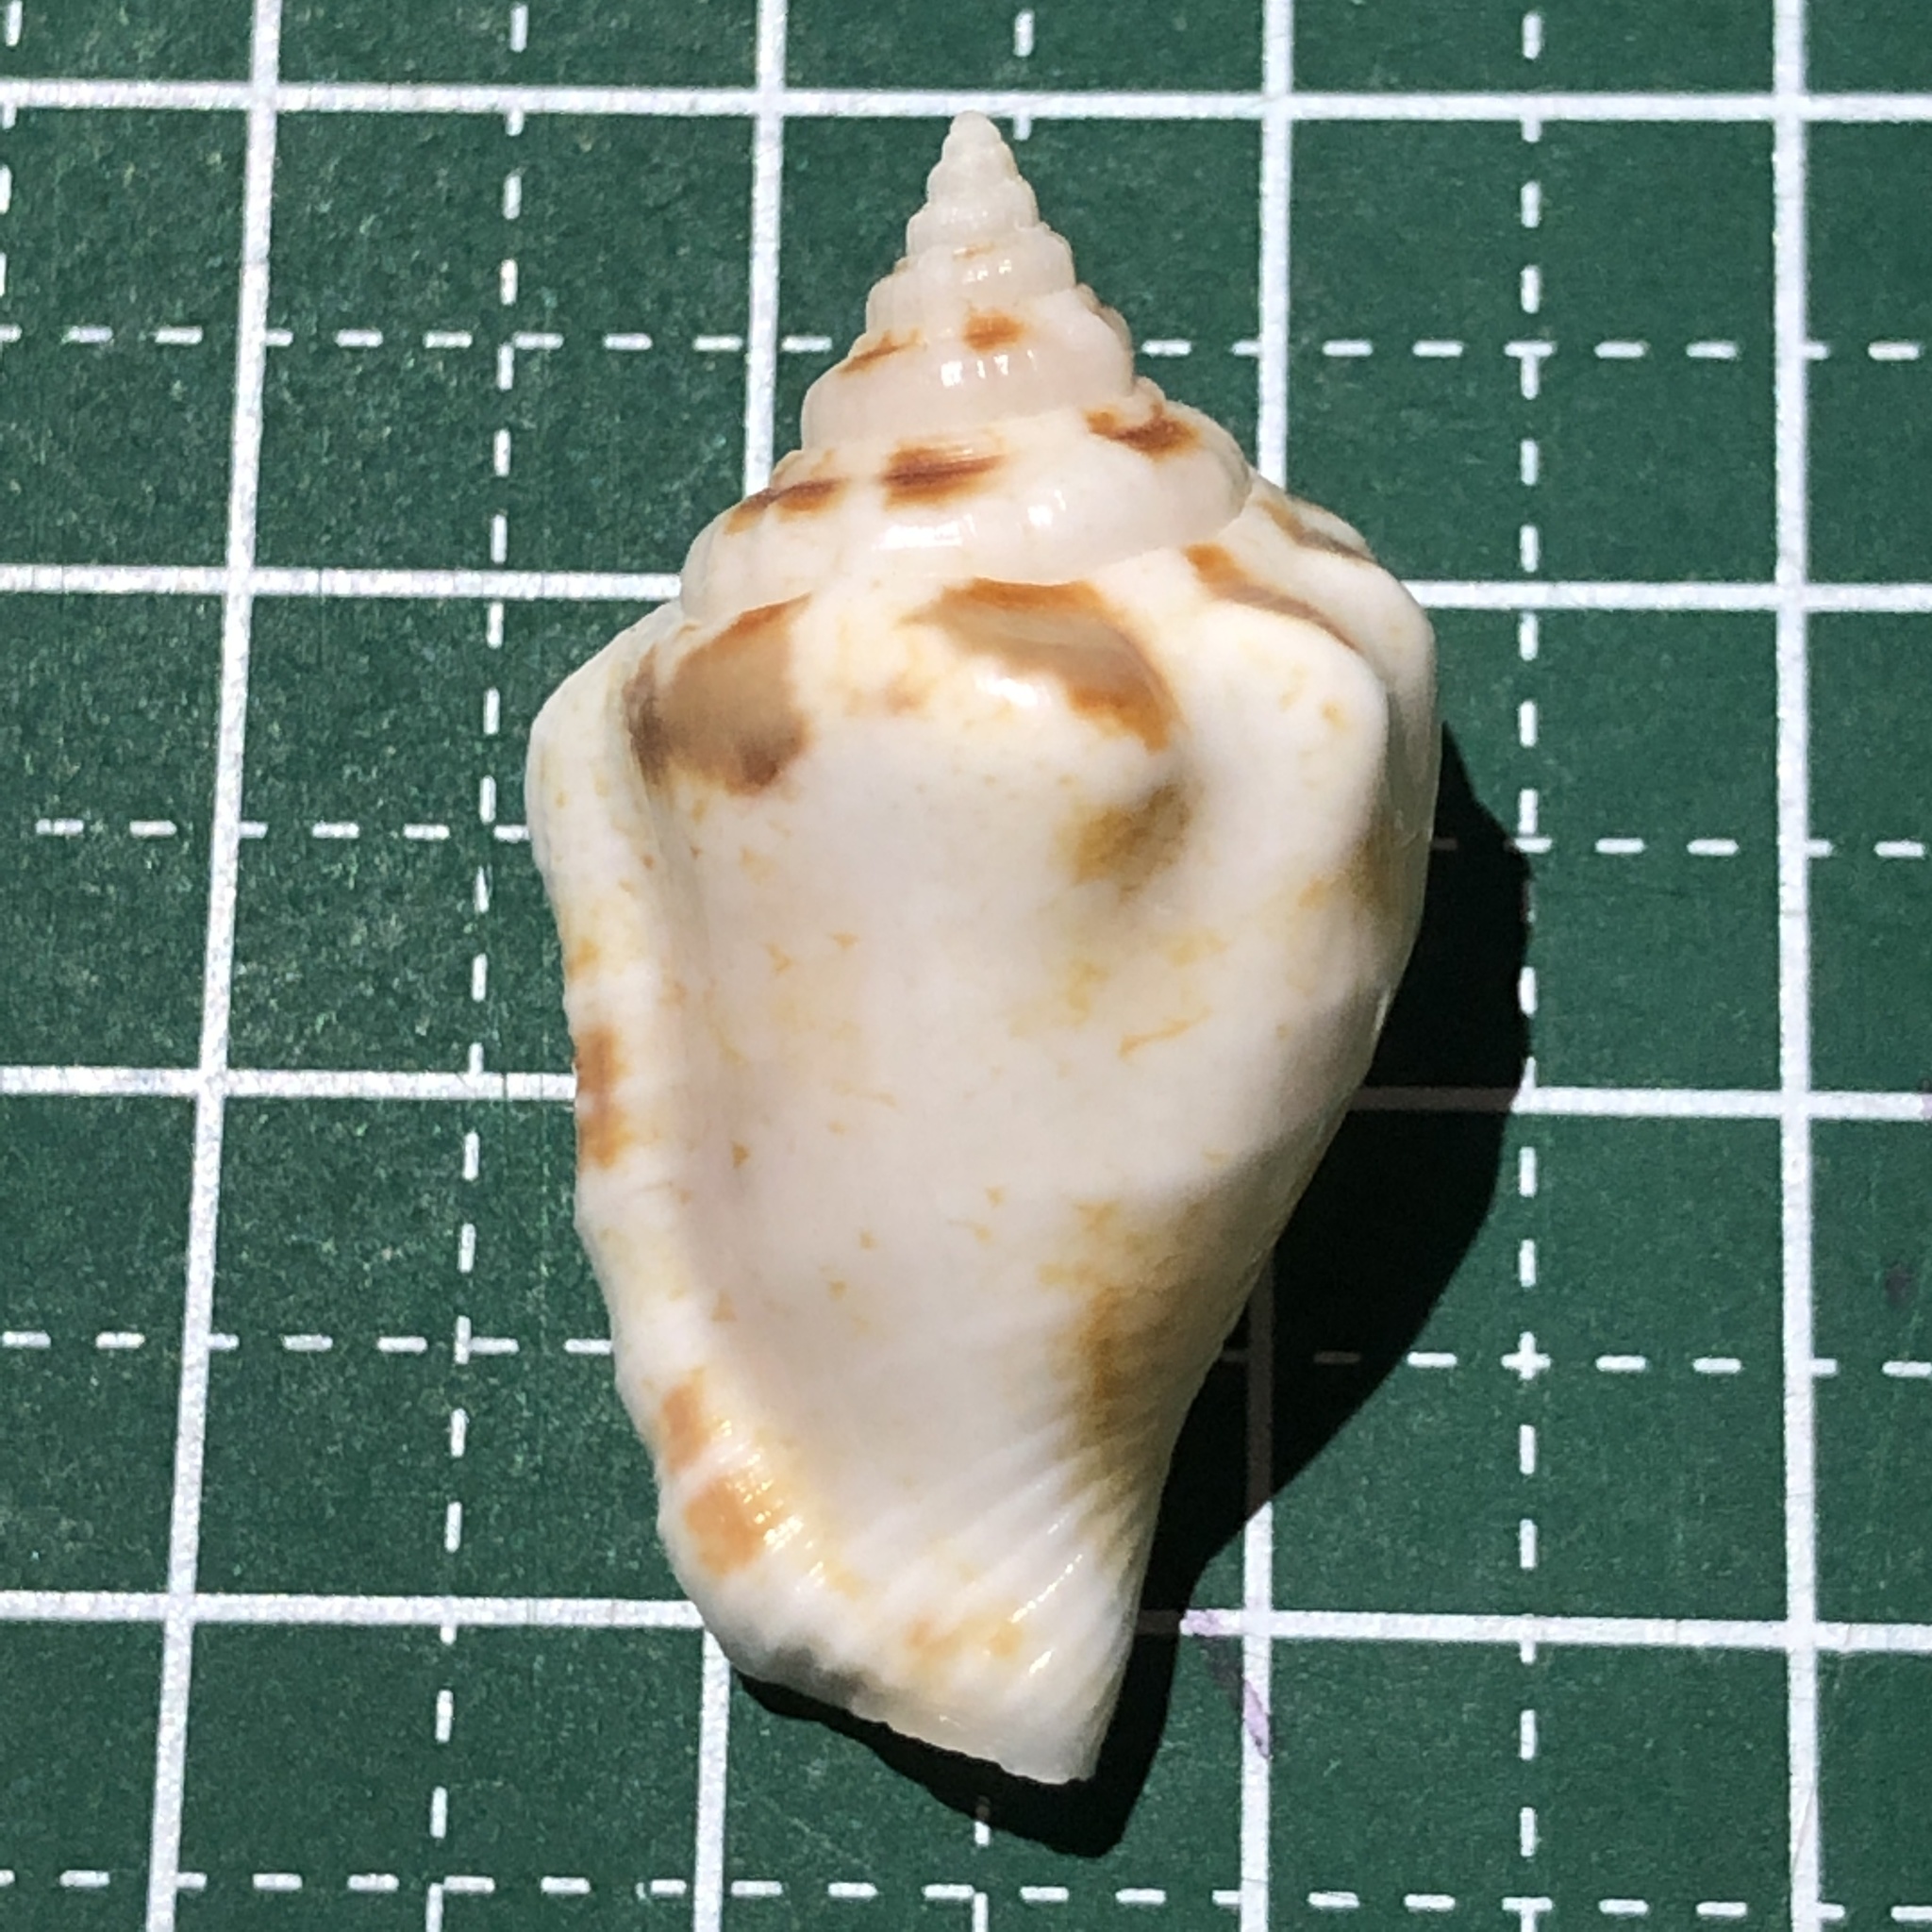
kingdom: Animalia
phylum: Mollusca
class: Gastropoda
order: Littorinimorpha
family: Strombidae
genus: Canarium
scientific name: Canarium mutabile
